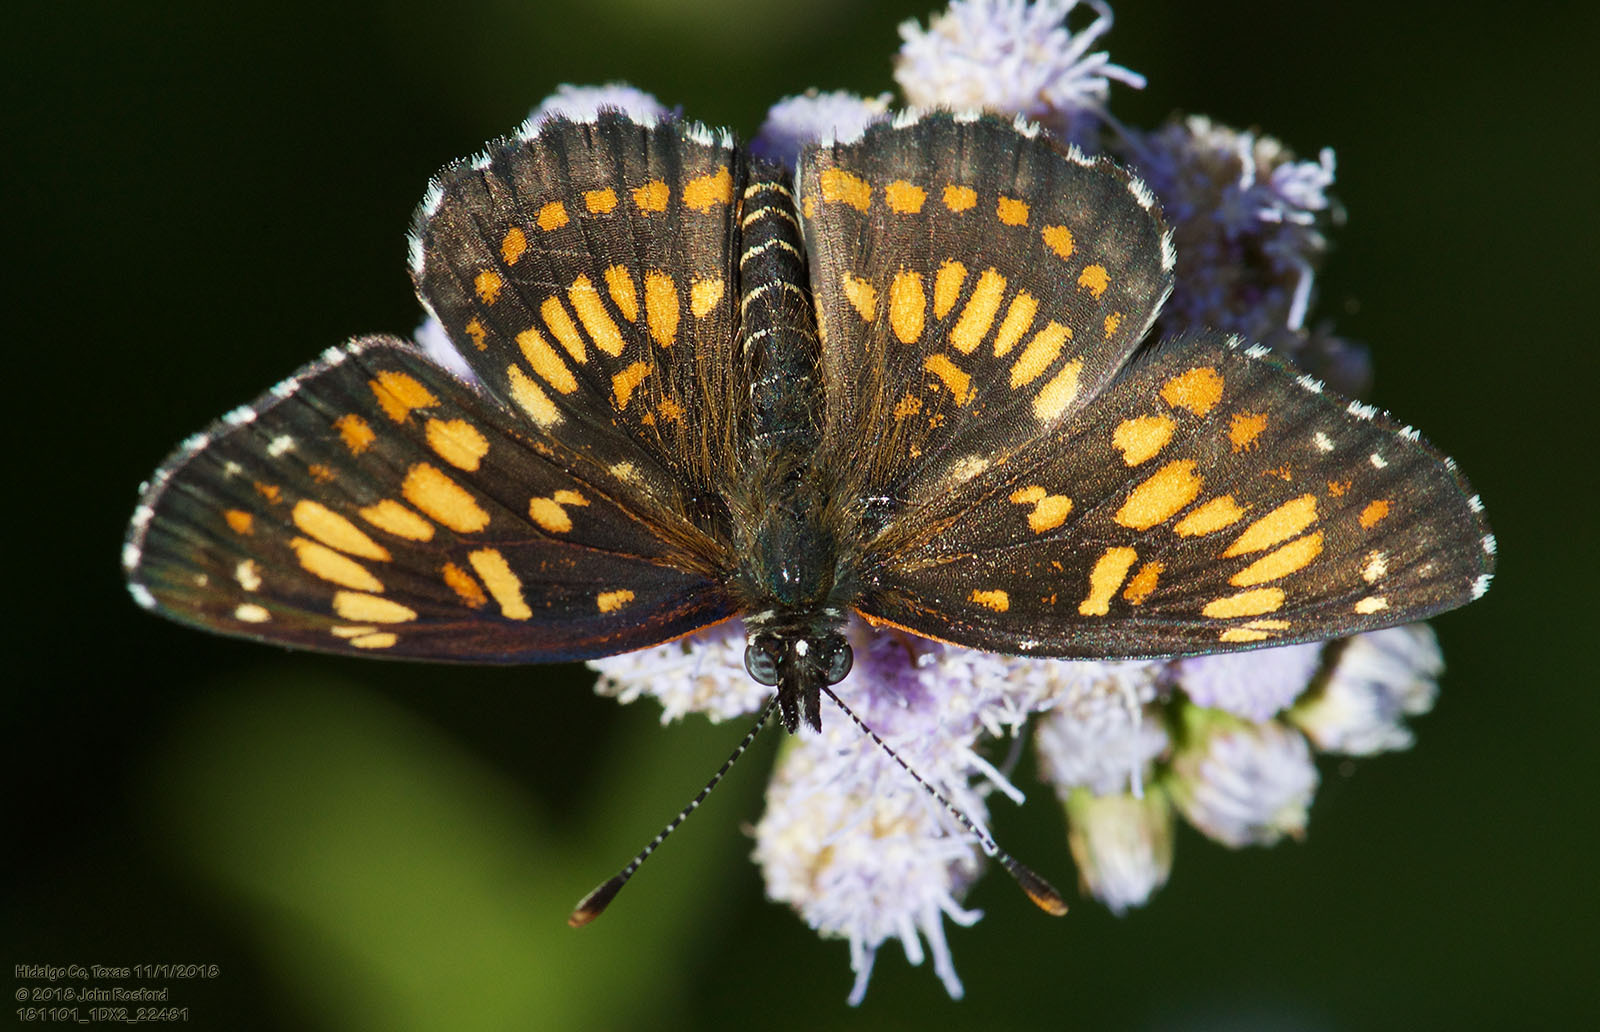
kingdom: Animalia
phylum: Arthropoda
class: Insecta
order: Lepidoptera
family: Nymphalidae
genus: Thessalia
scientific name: Thessalia theona
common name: Nymphalid moth
